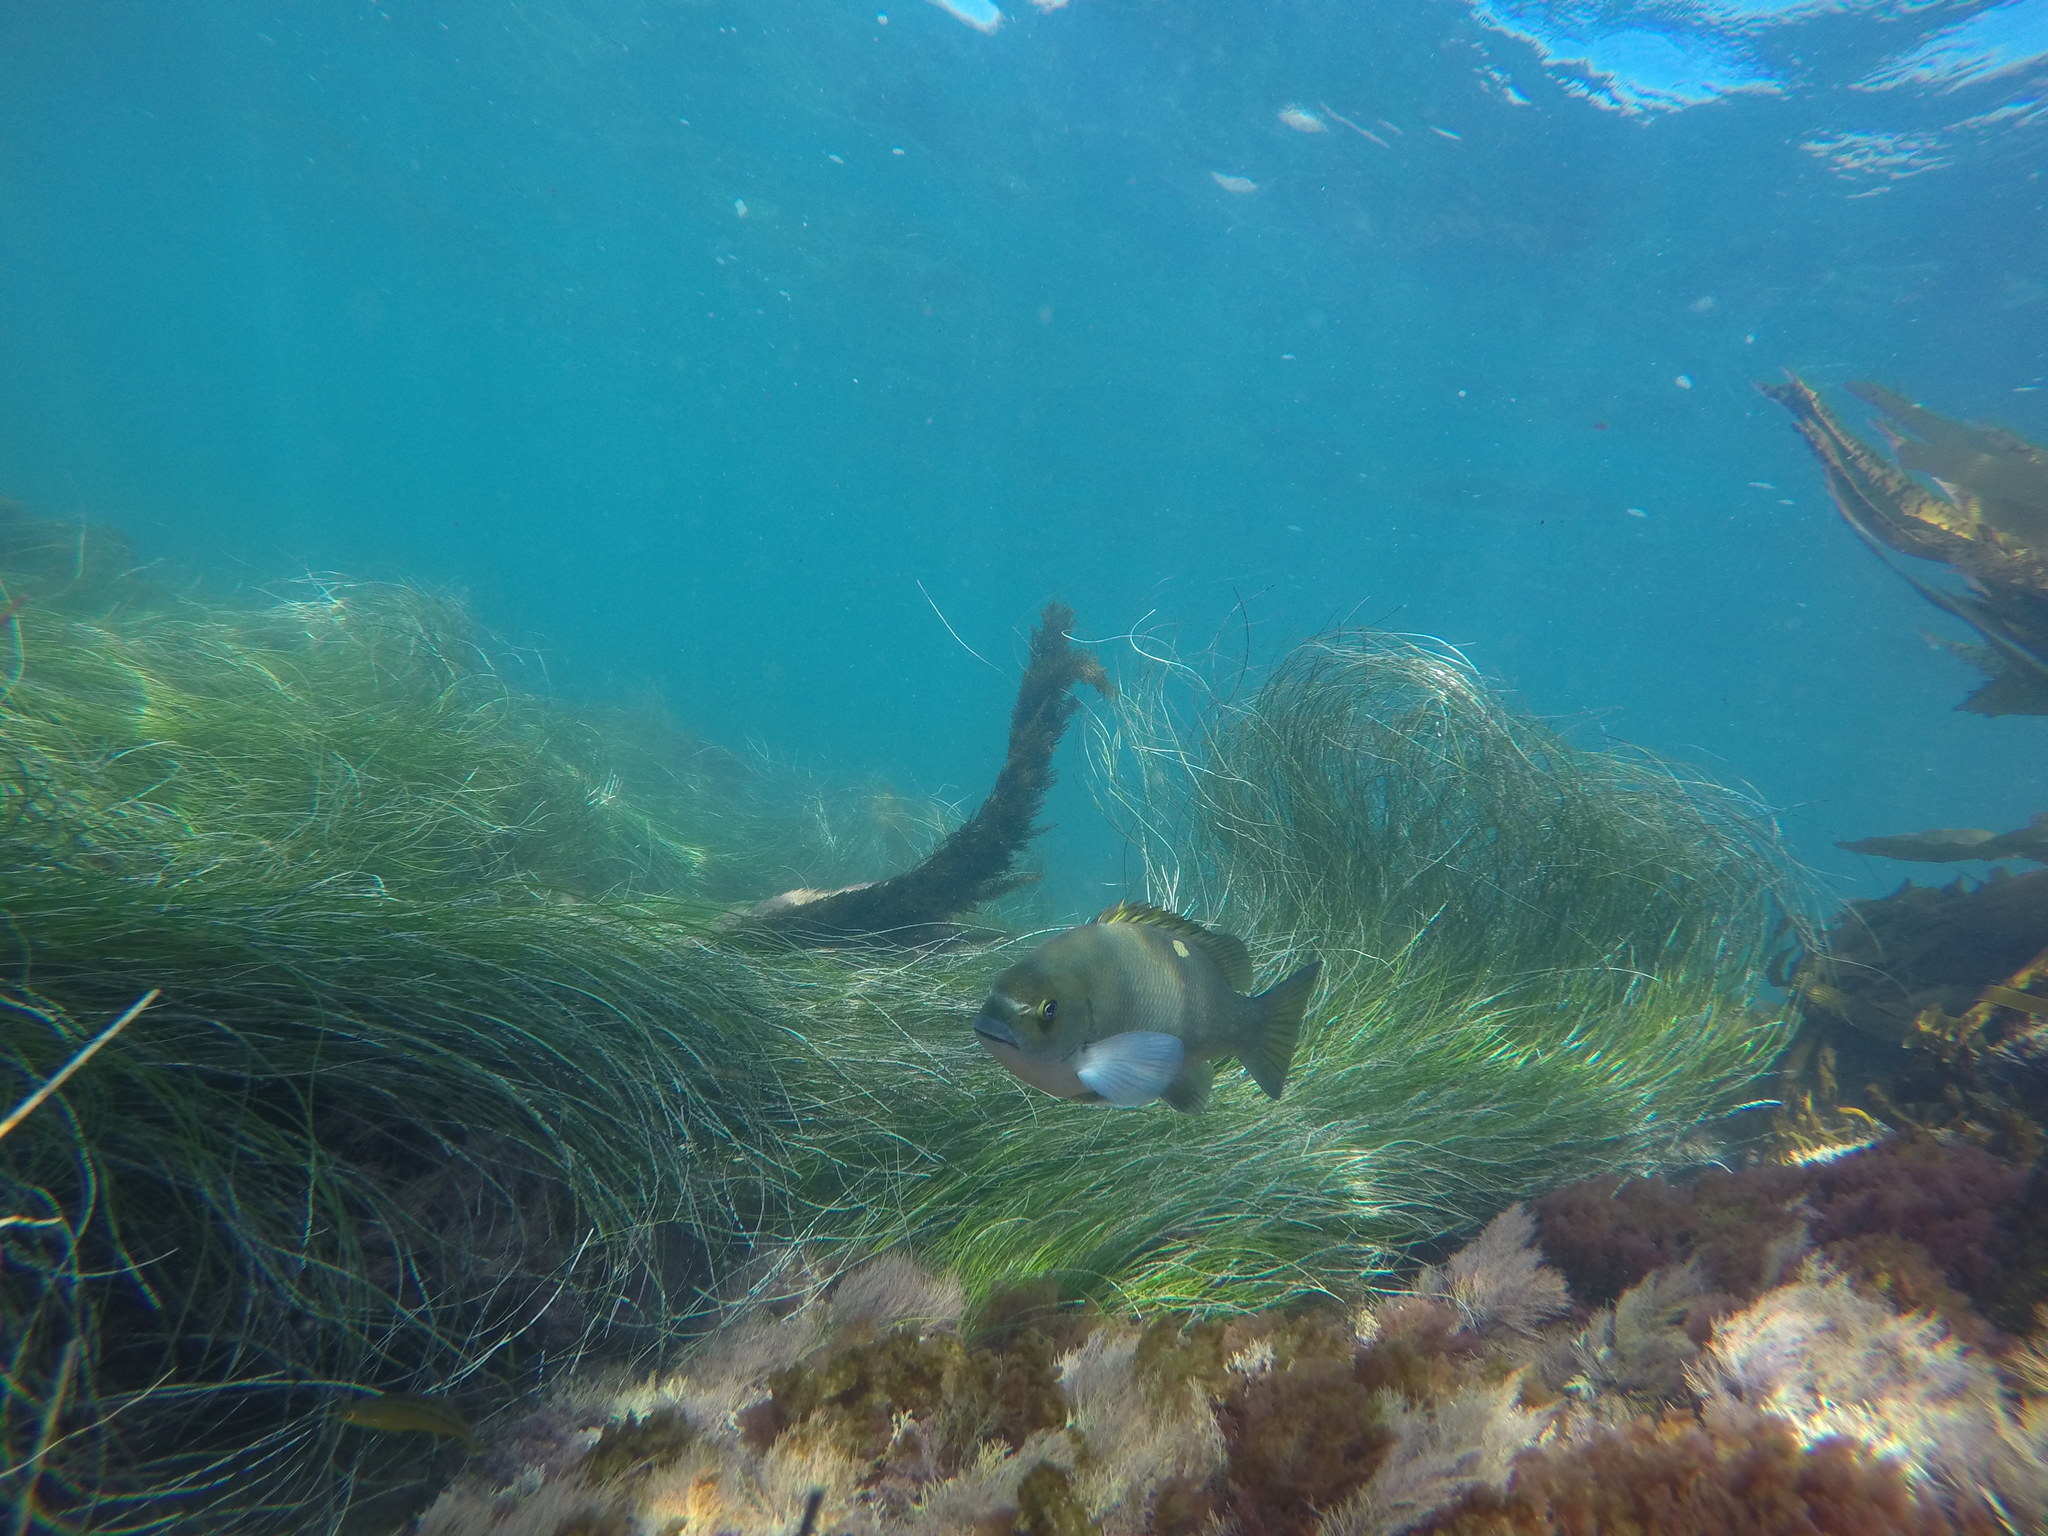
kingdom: Animalia
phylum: Chordata
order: Perciformes
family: Kyphosidae
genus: Girella
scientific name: Girella nigricans
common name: Opaleye
